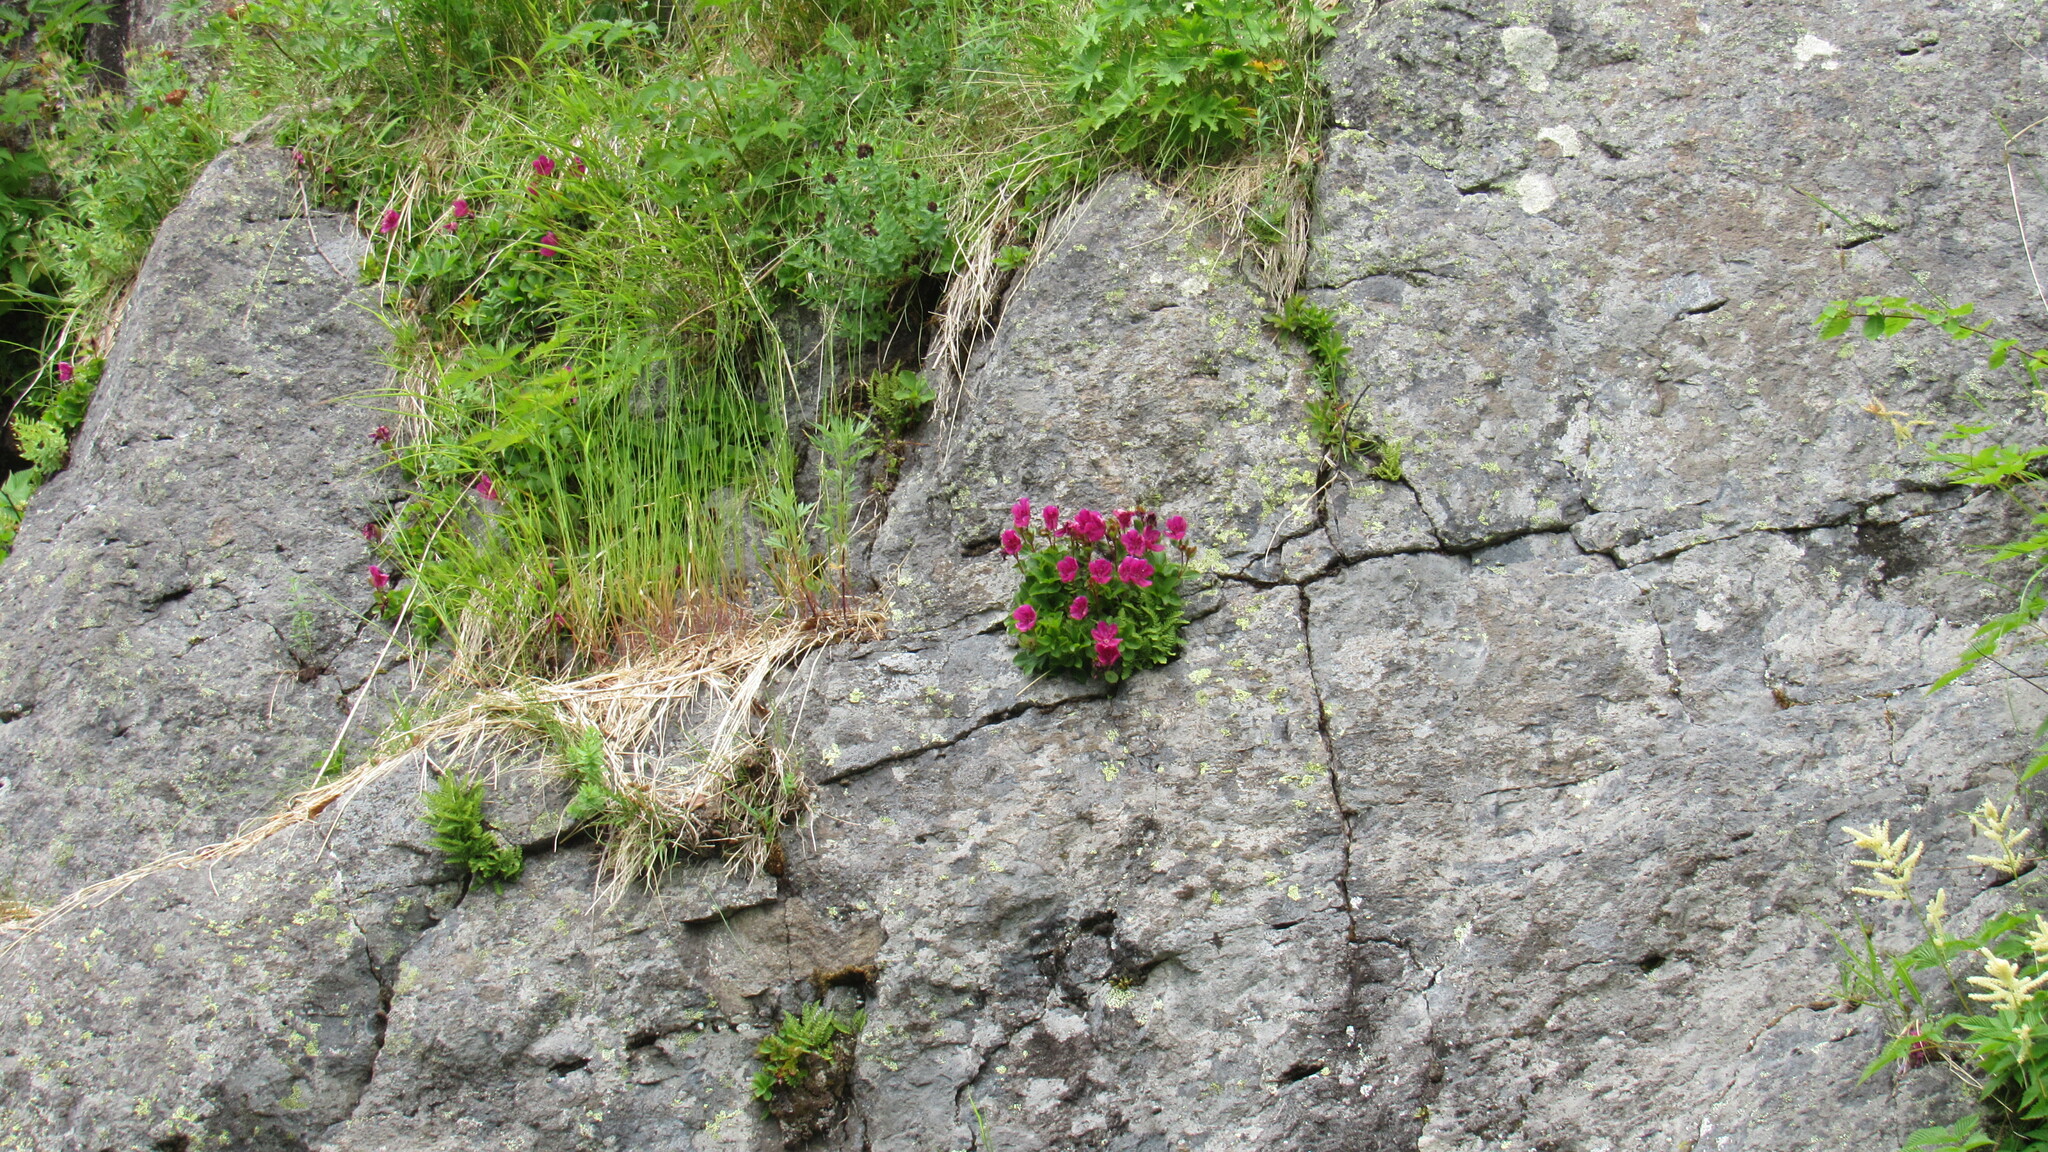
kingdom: Plantae
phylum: Tracheophyta
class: Magnoliopsida
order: Ericales
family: Ericaceae
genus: Rhododendron
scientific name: Rhododendron camtschaticum
